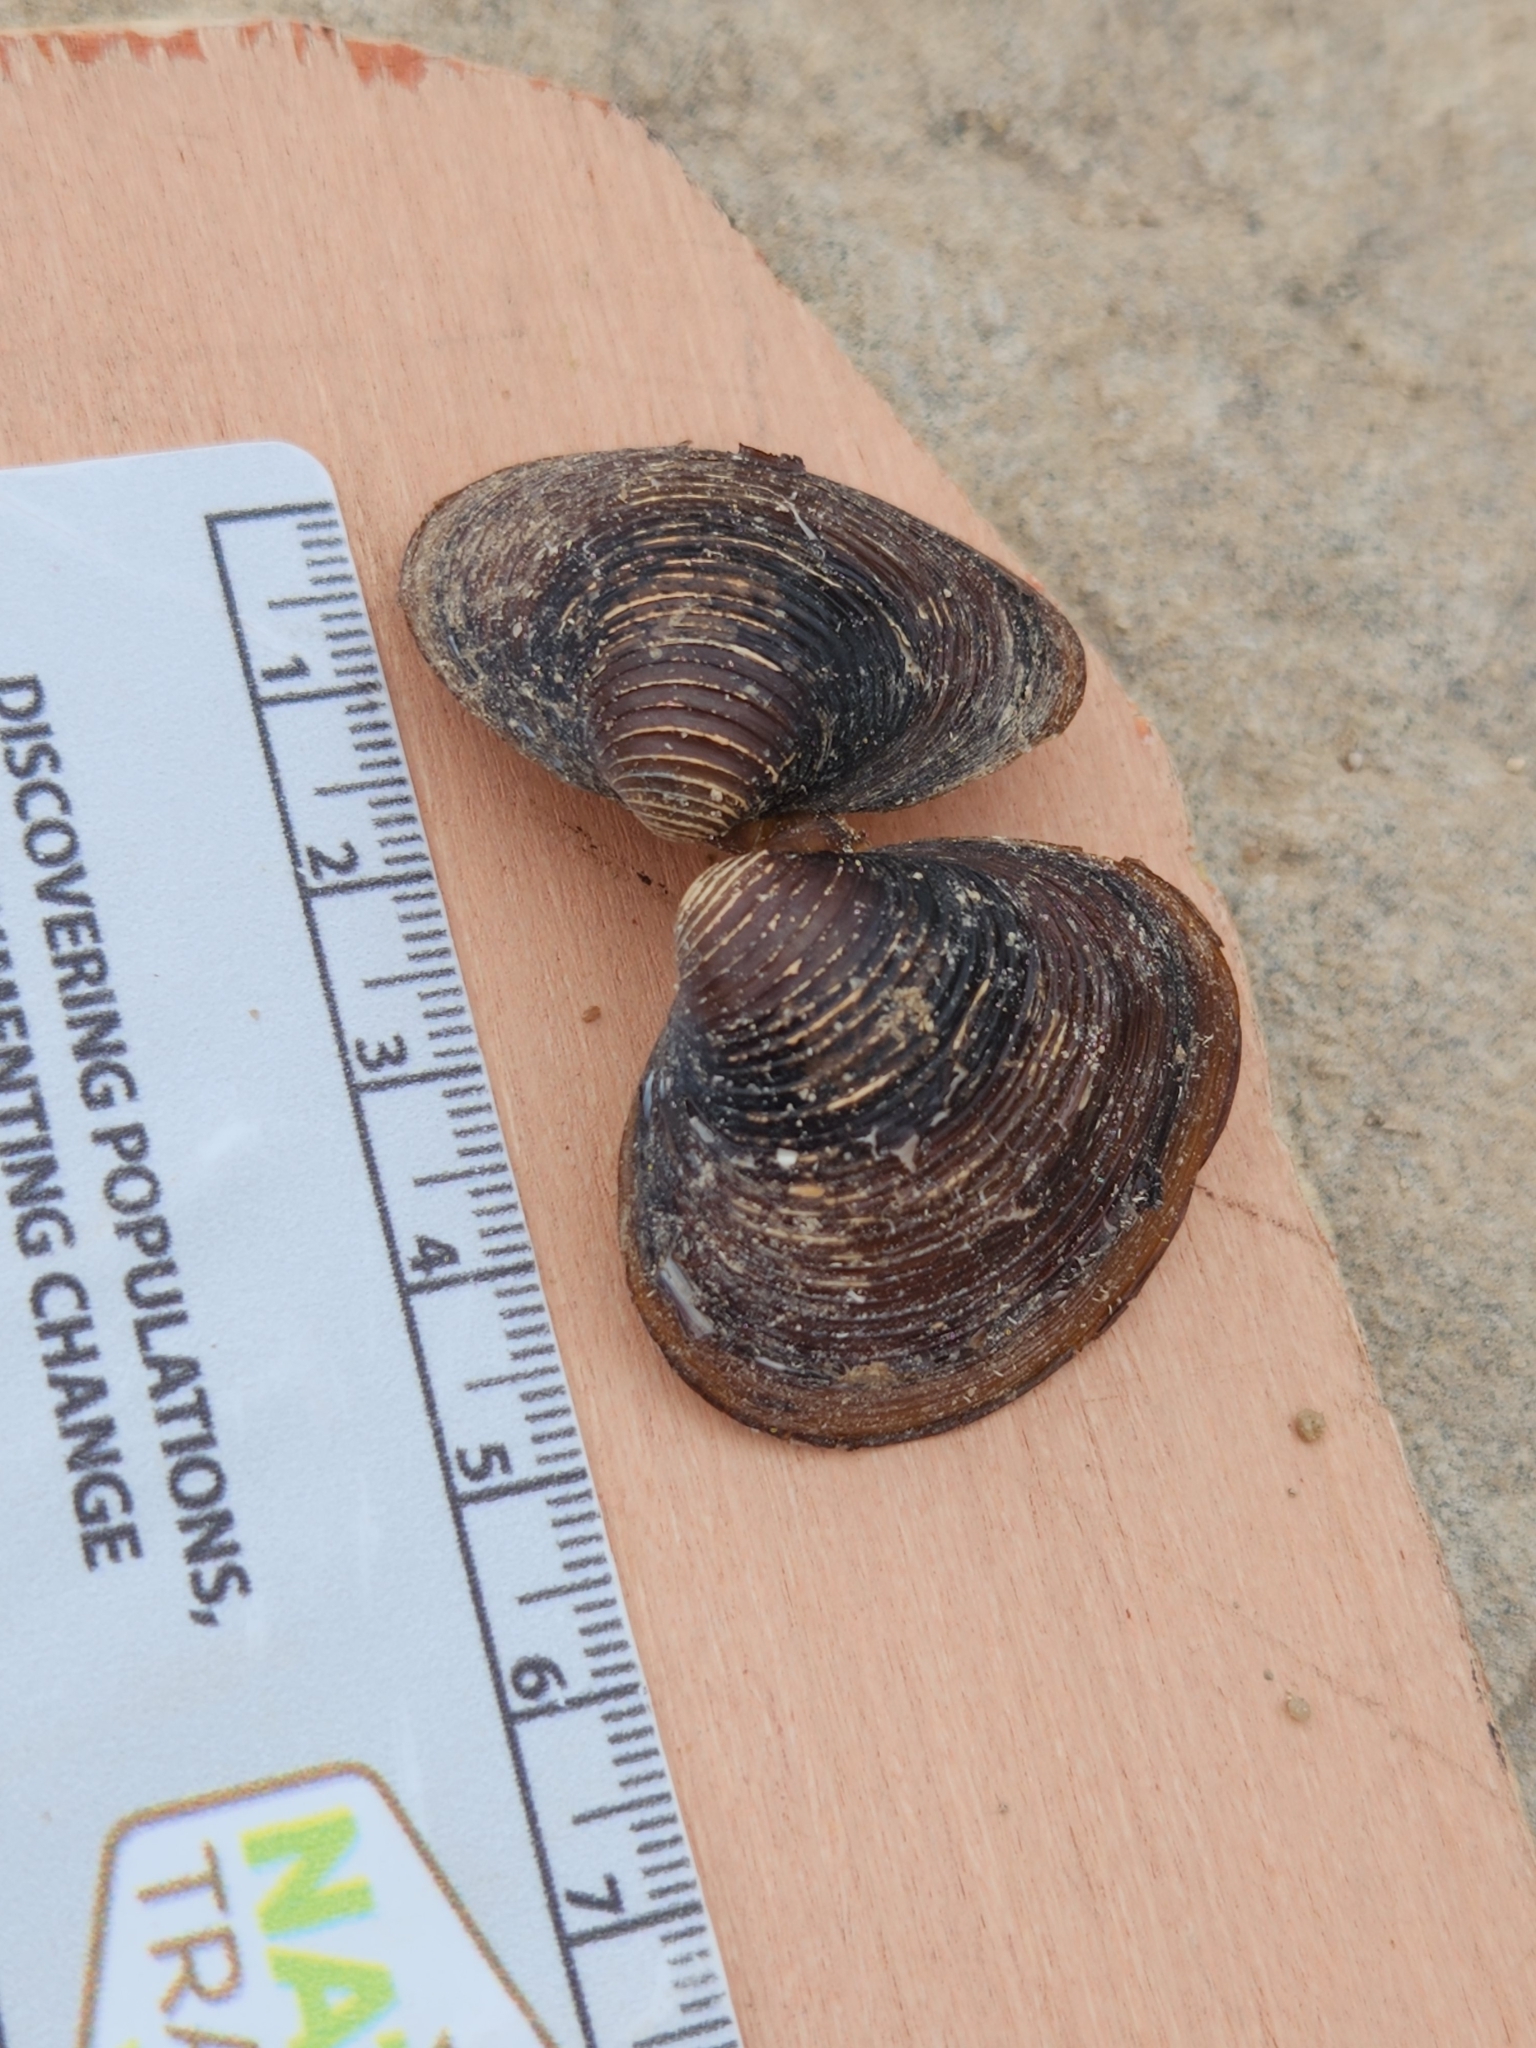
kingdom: Animalia
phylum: Mollusca
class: Bivalvia
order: Venerida
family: Cyrenidae
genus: Corbicula
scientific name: Corbicula fluminea
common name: Asian clam
